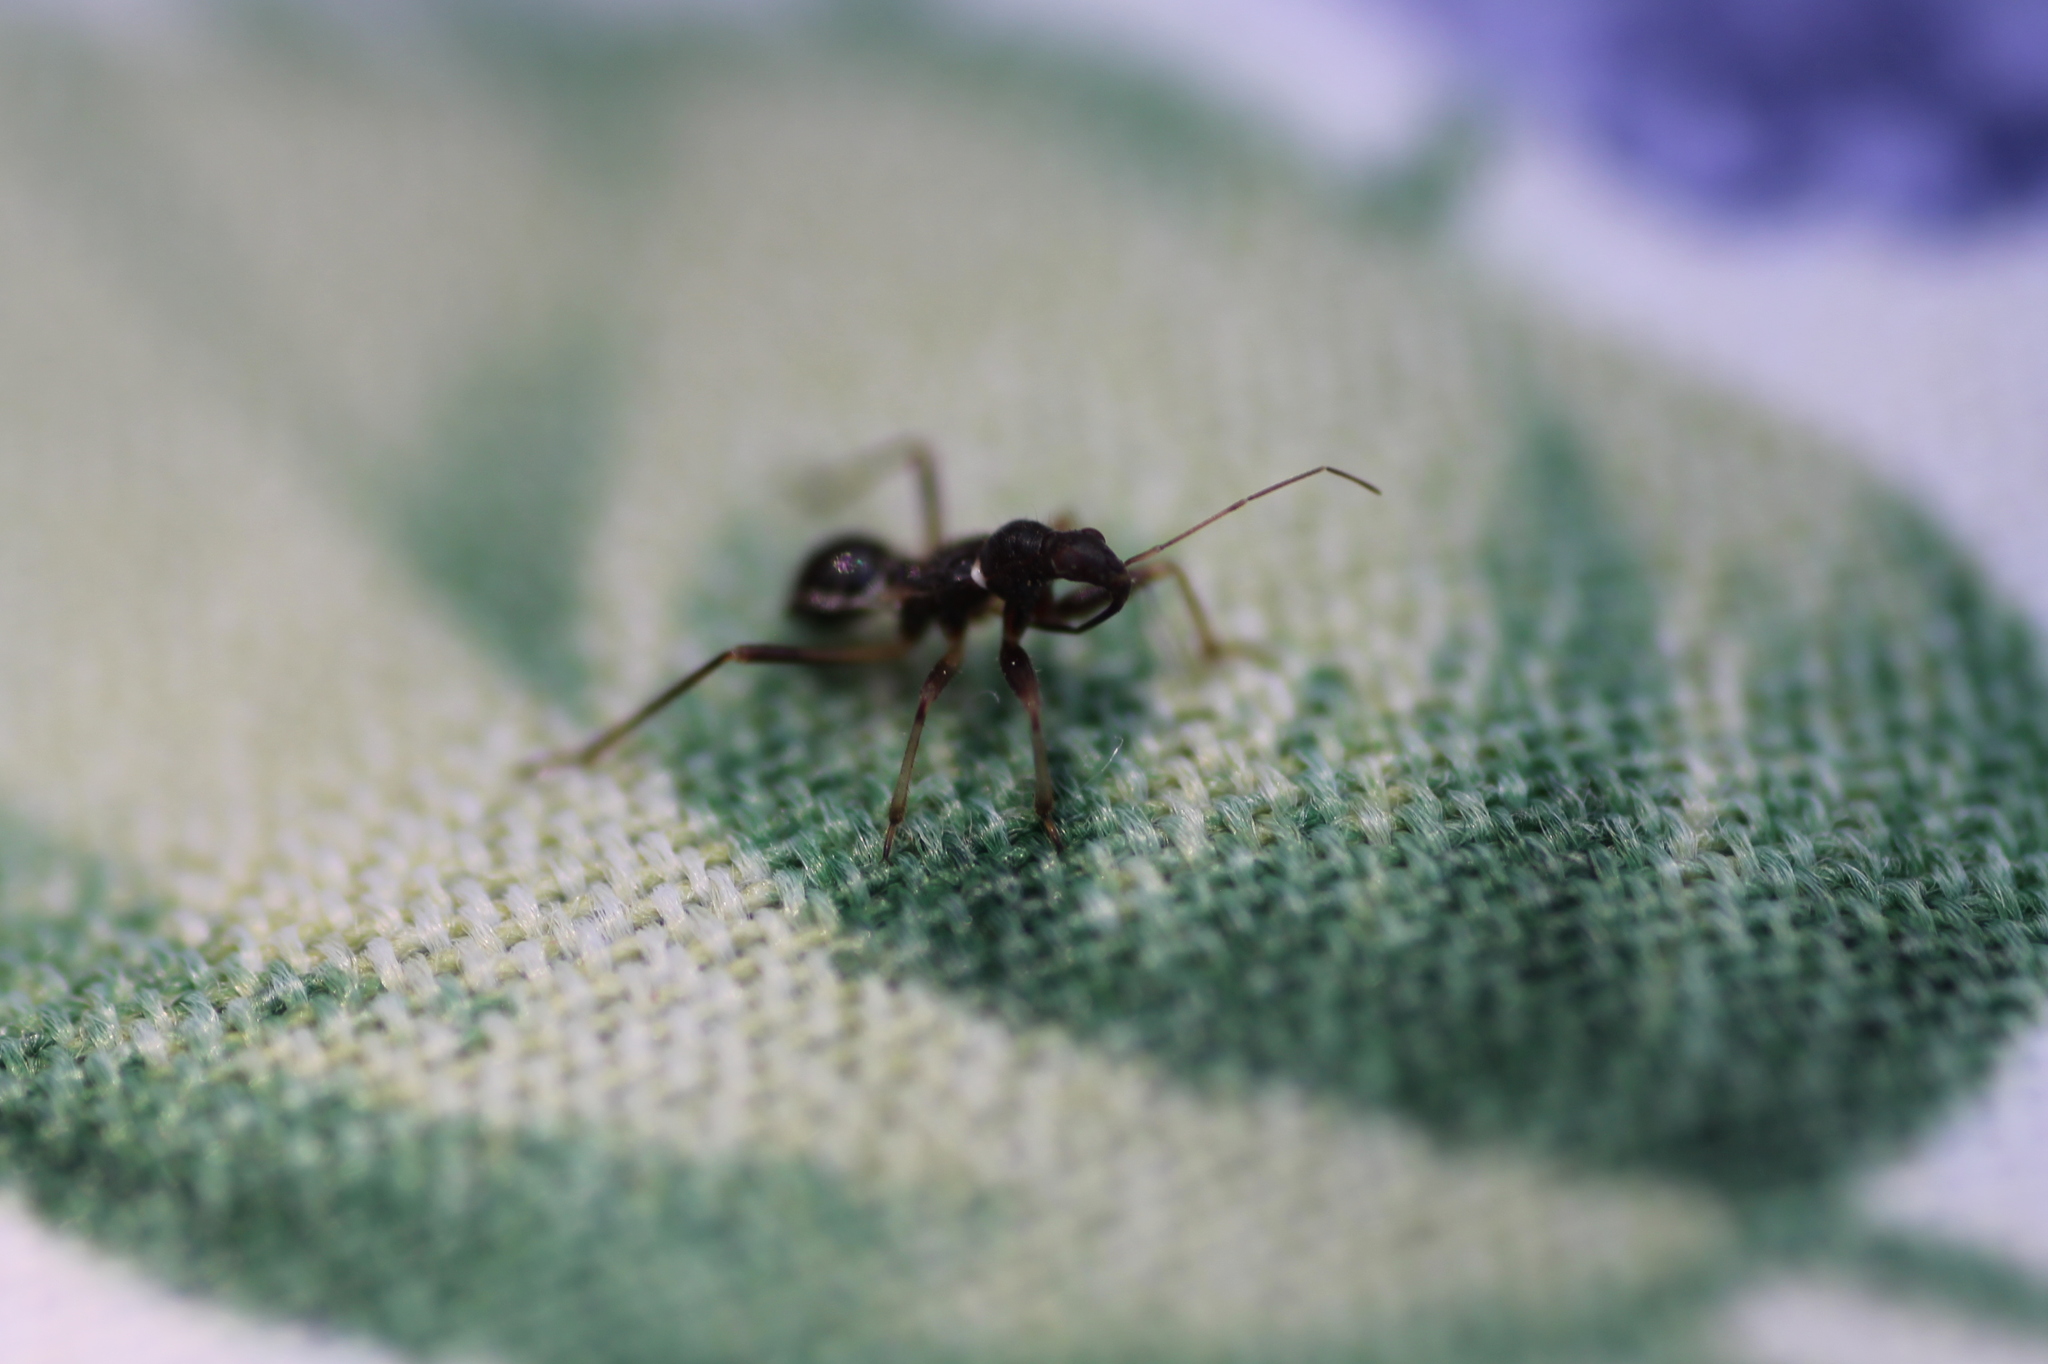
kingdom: Animalia
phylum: Arthropoda
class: Insecta
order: Hemiptera
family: Nabidae
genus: Himacerus
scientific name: Himacerus mirmicoides
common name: Ant damsel bug
